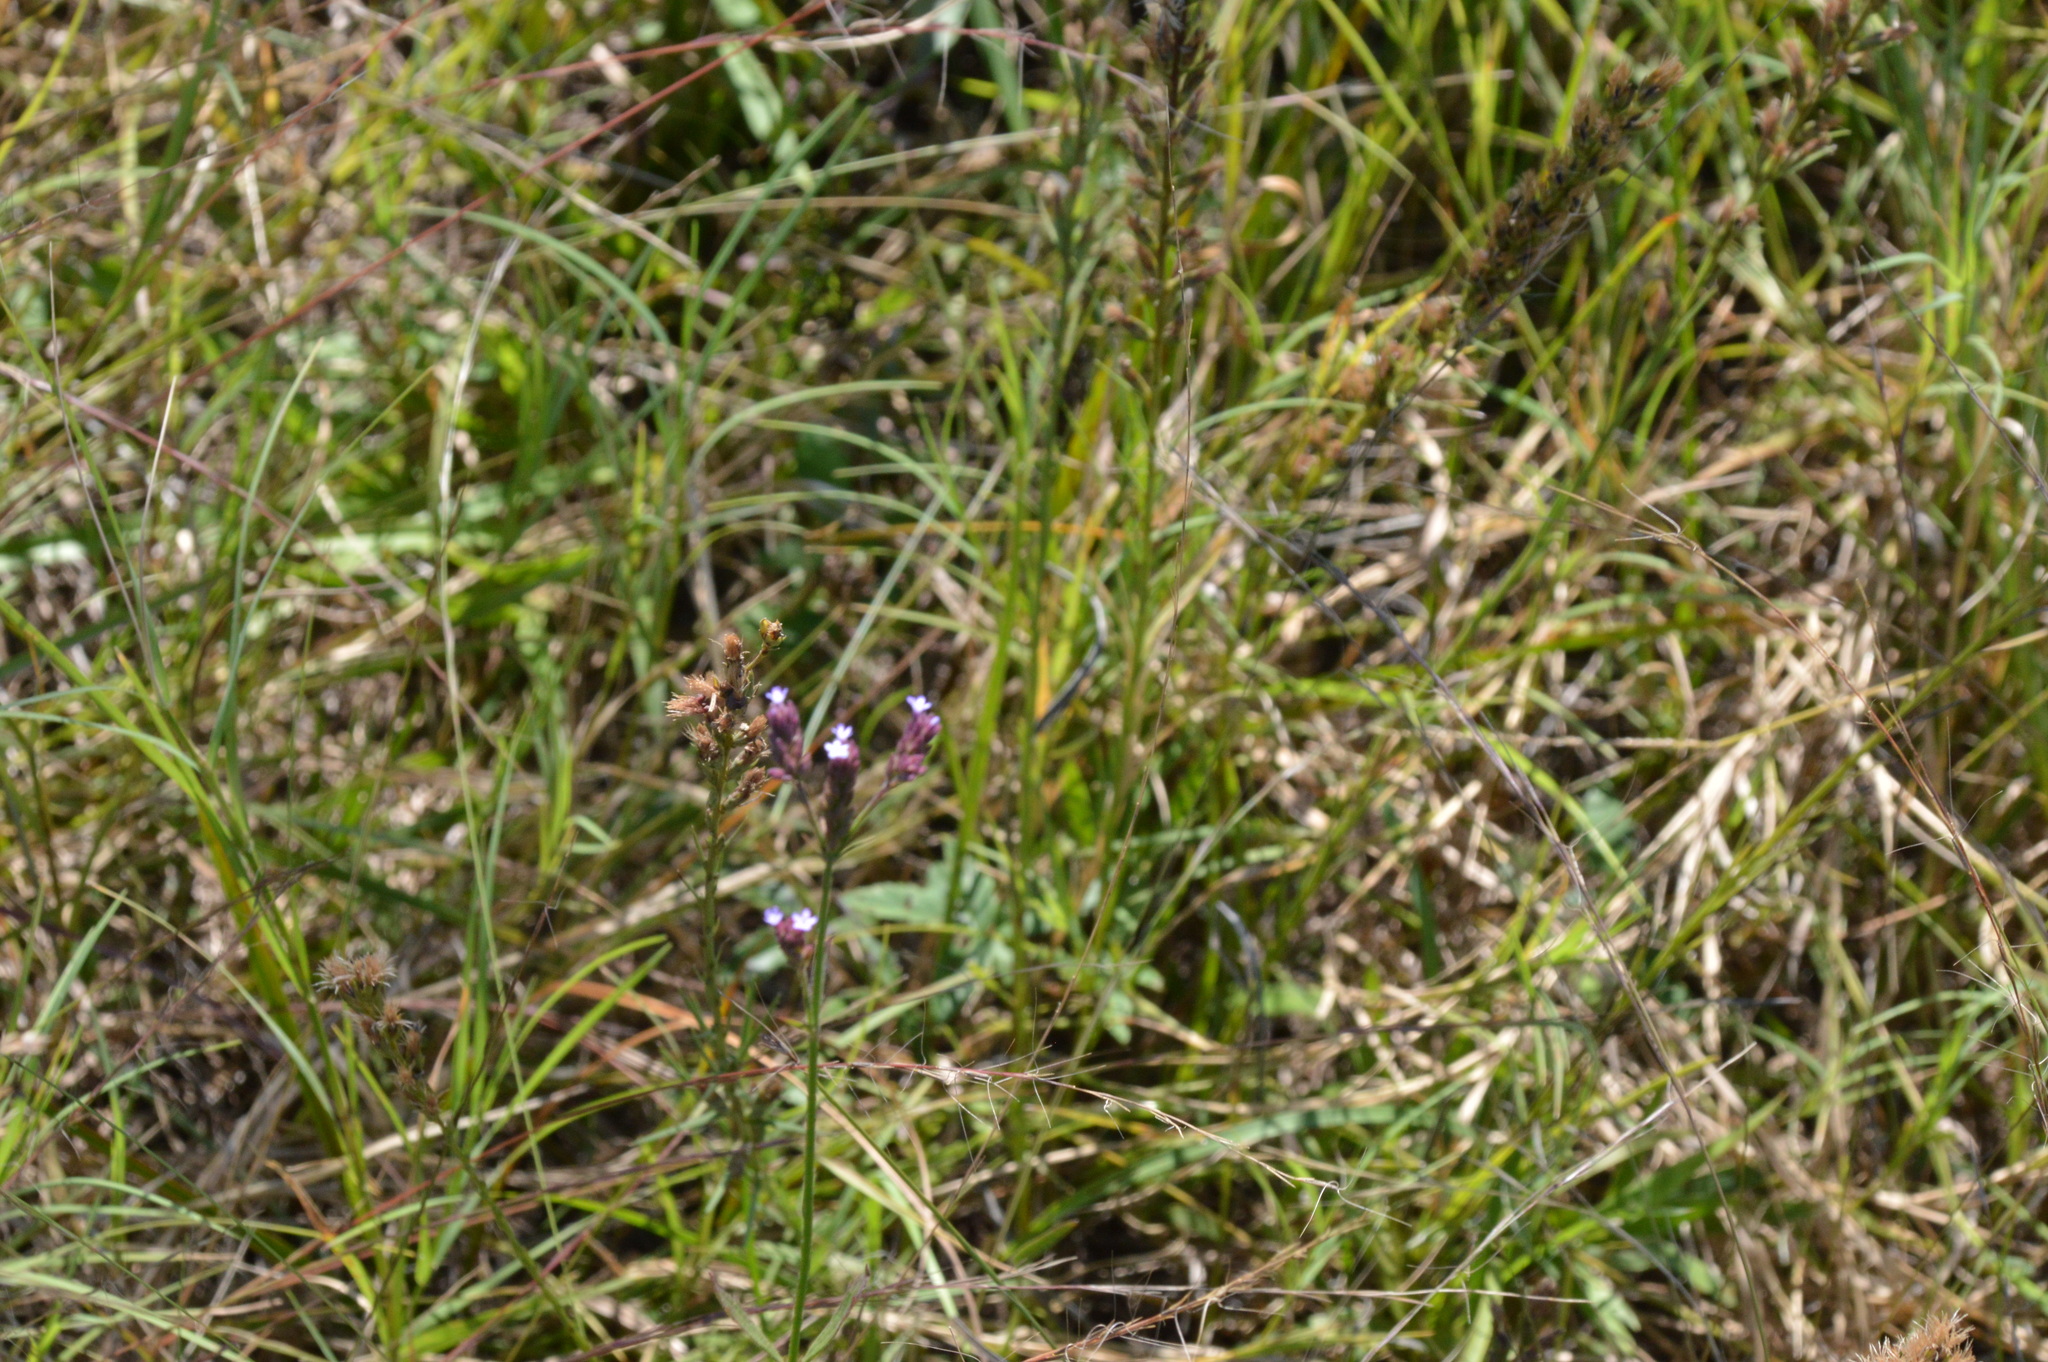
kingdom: Plantae
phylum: Tracheophyta
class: Magnoliopsida
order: Lamiales
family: Verbenaceae
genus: Verbena
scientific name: Verbena brasiliensis
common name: Brazilian vervain
